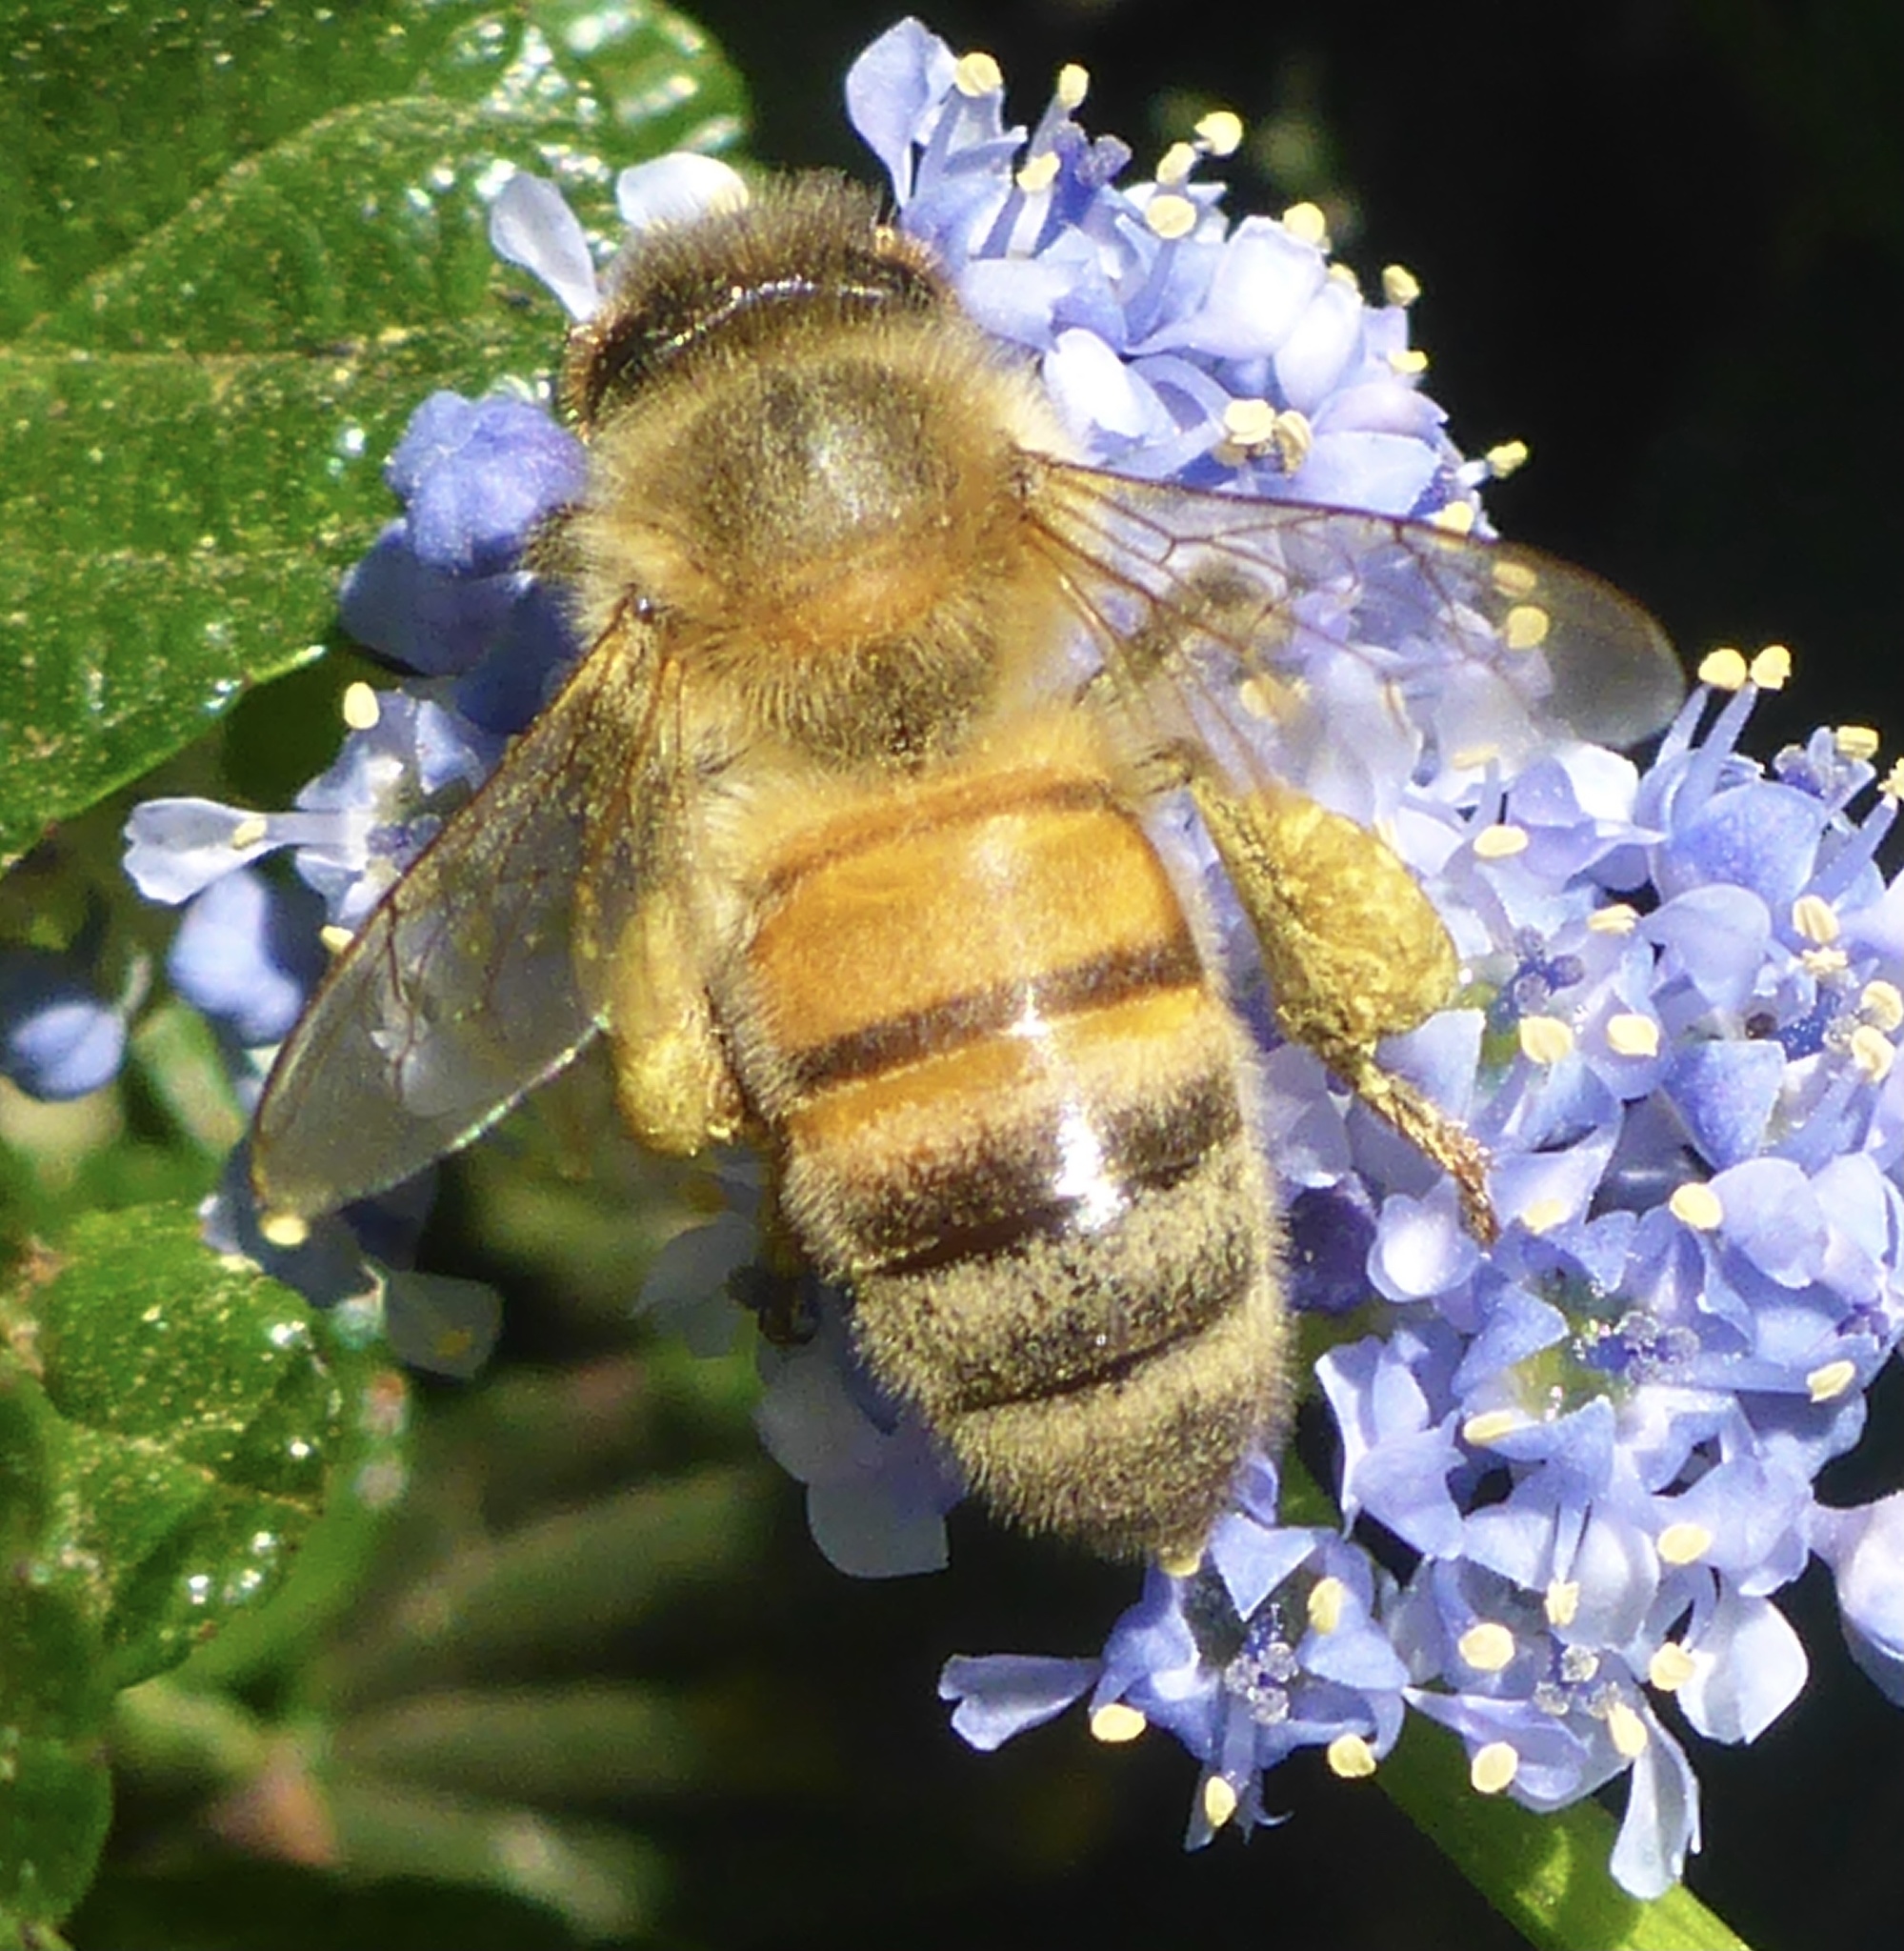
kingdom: Animalia
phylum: Arthropoda
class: Insecta
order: Hymenoptera
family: Apidae
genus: Apis
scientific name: Apis mellifera
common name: Honey bee
